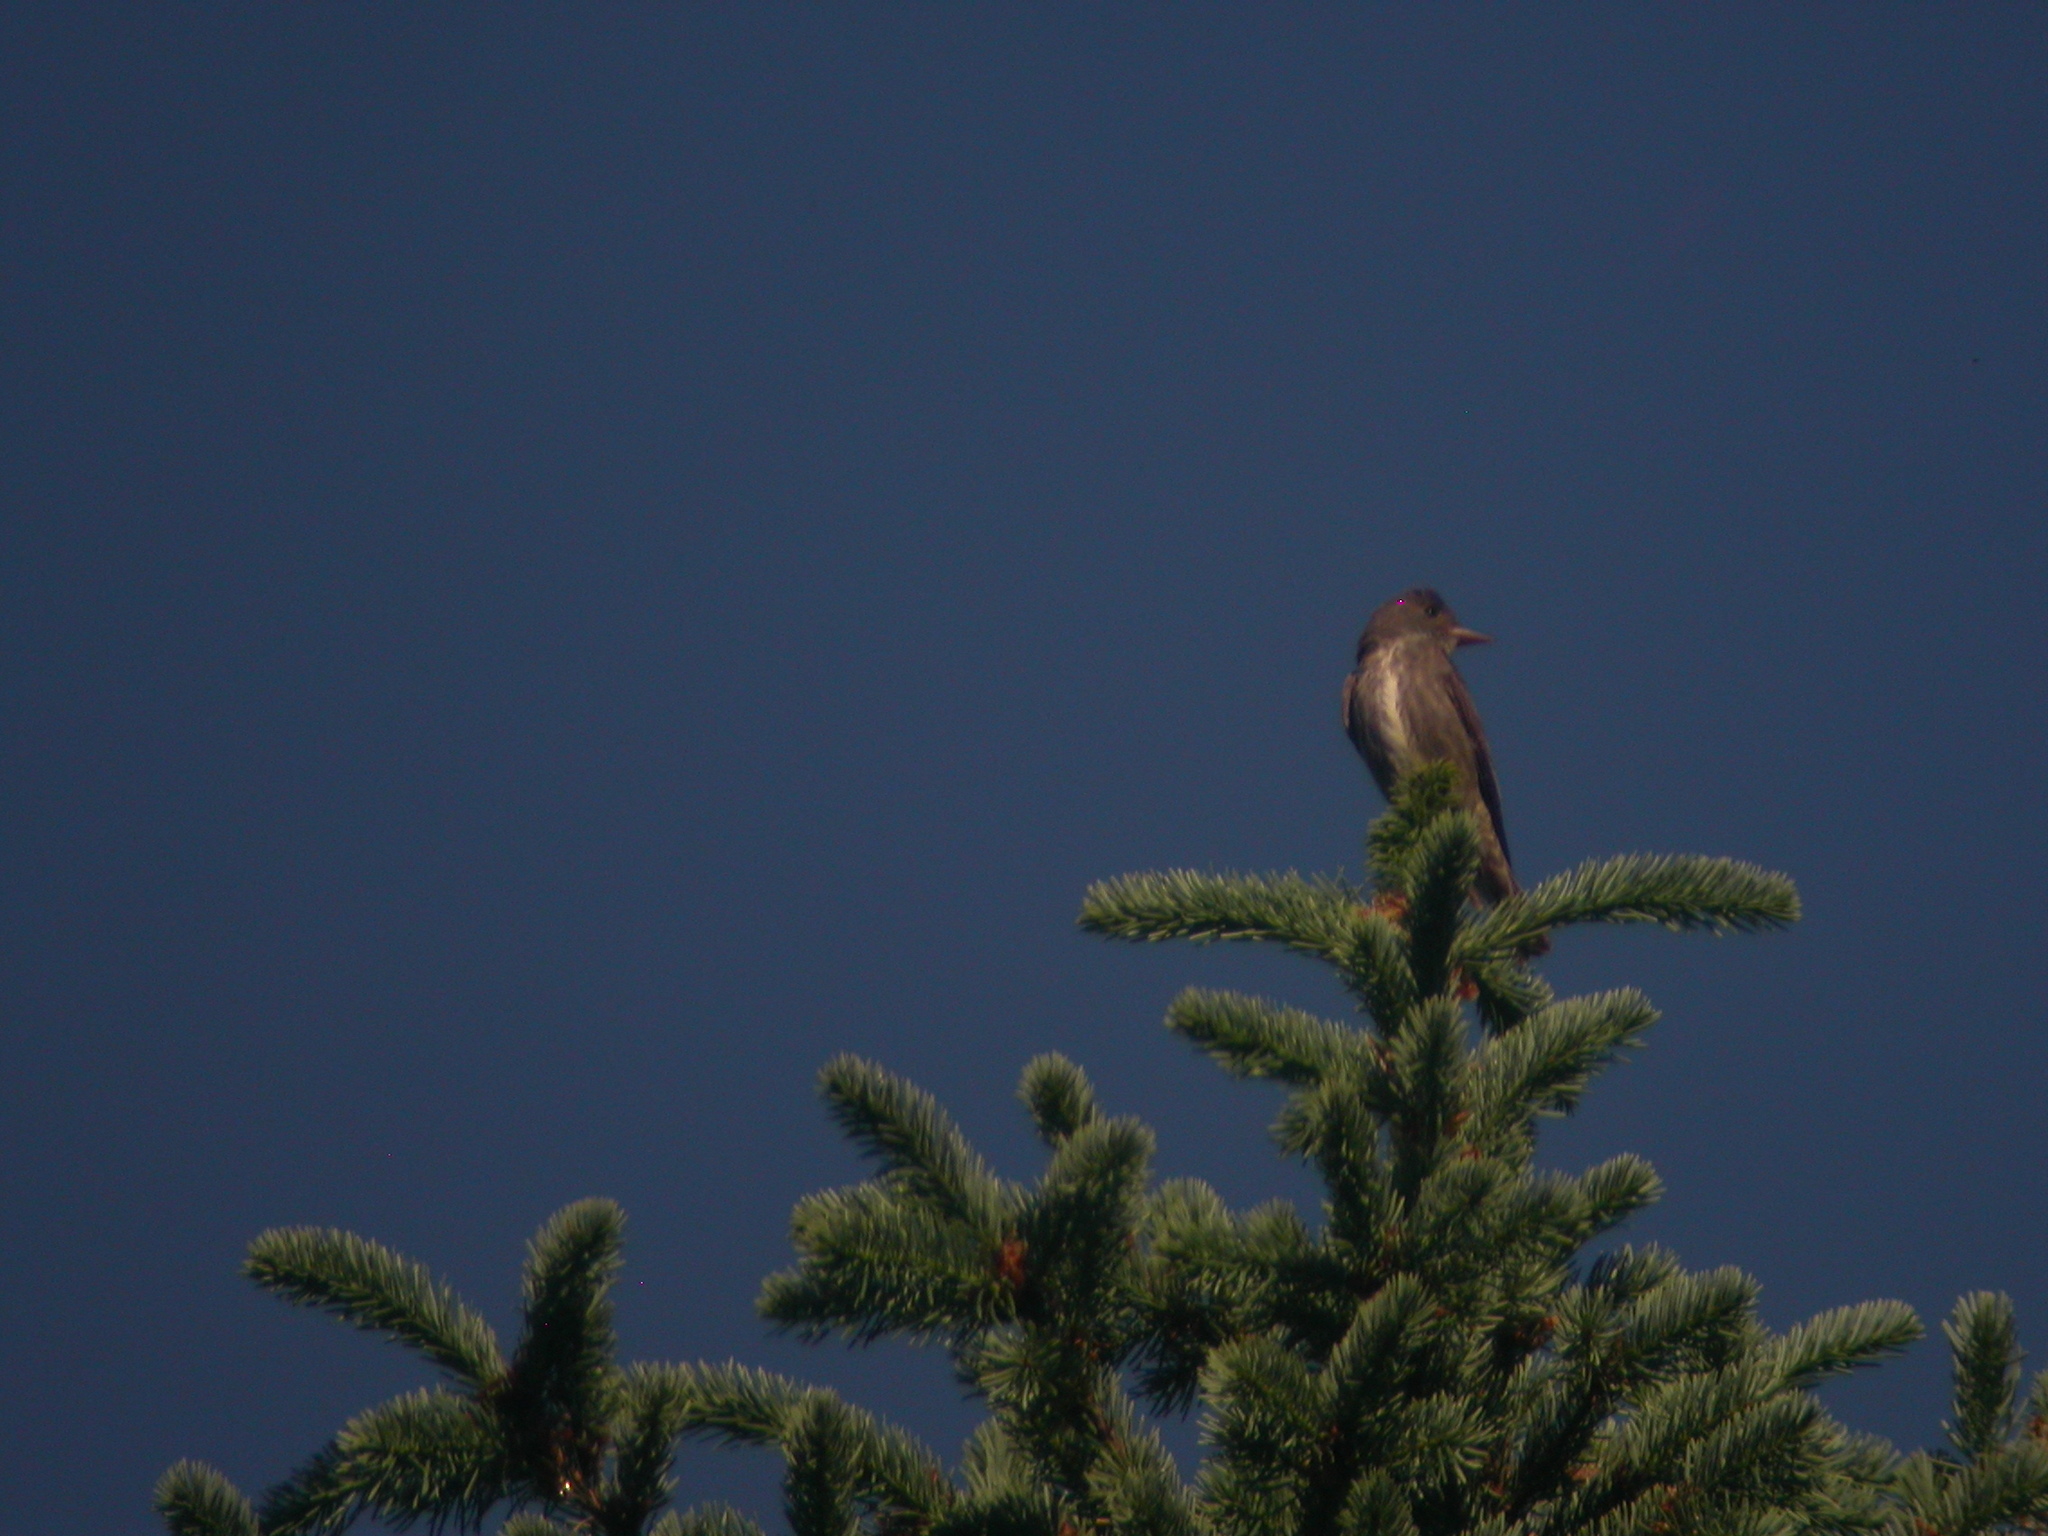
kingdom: Animalia
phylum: Chordata
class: Aves
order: Passeriformes
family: Tyrannidae
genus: Contopus
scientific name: Contopus cooperi
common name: Olive-sided flycatcher
